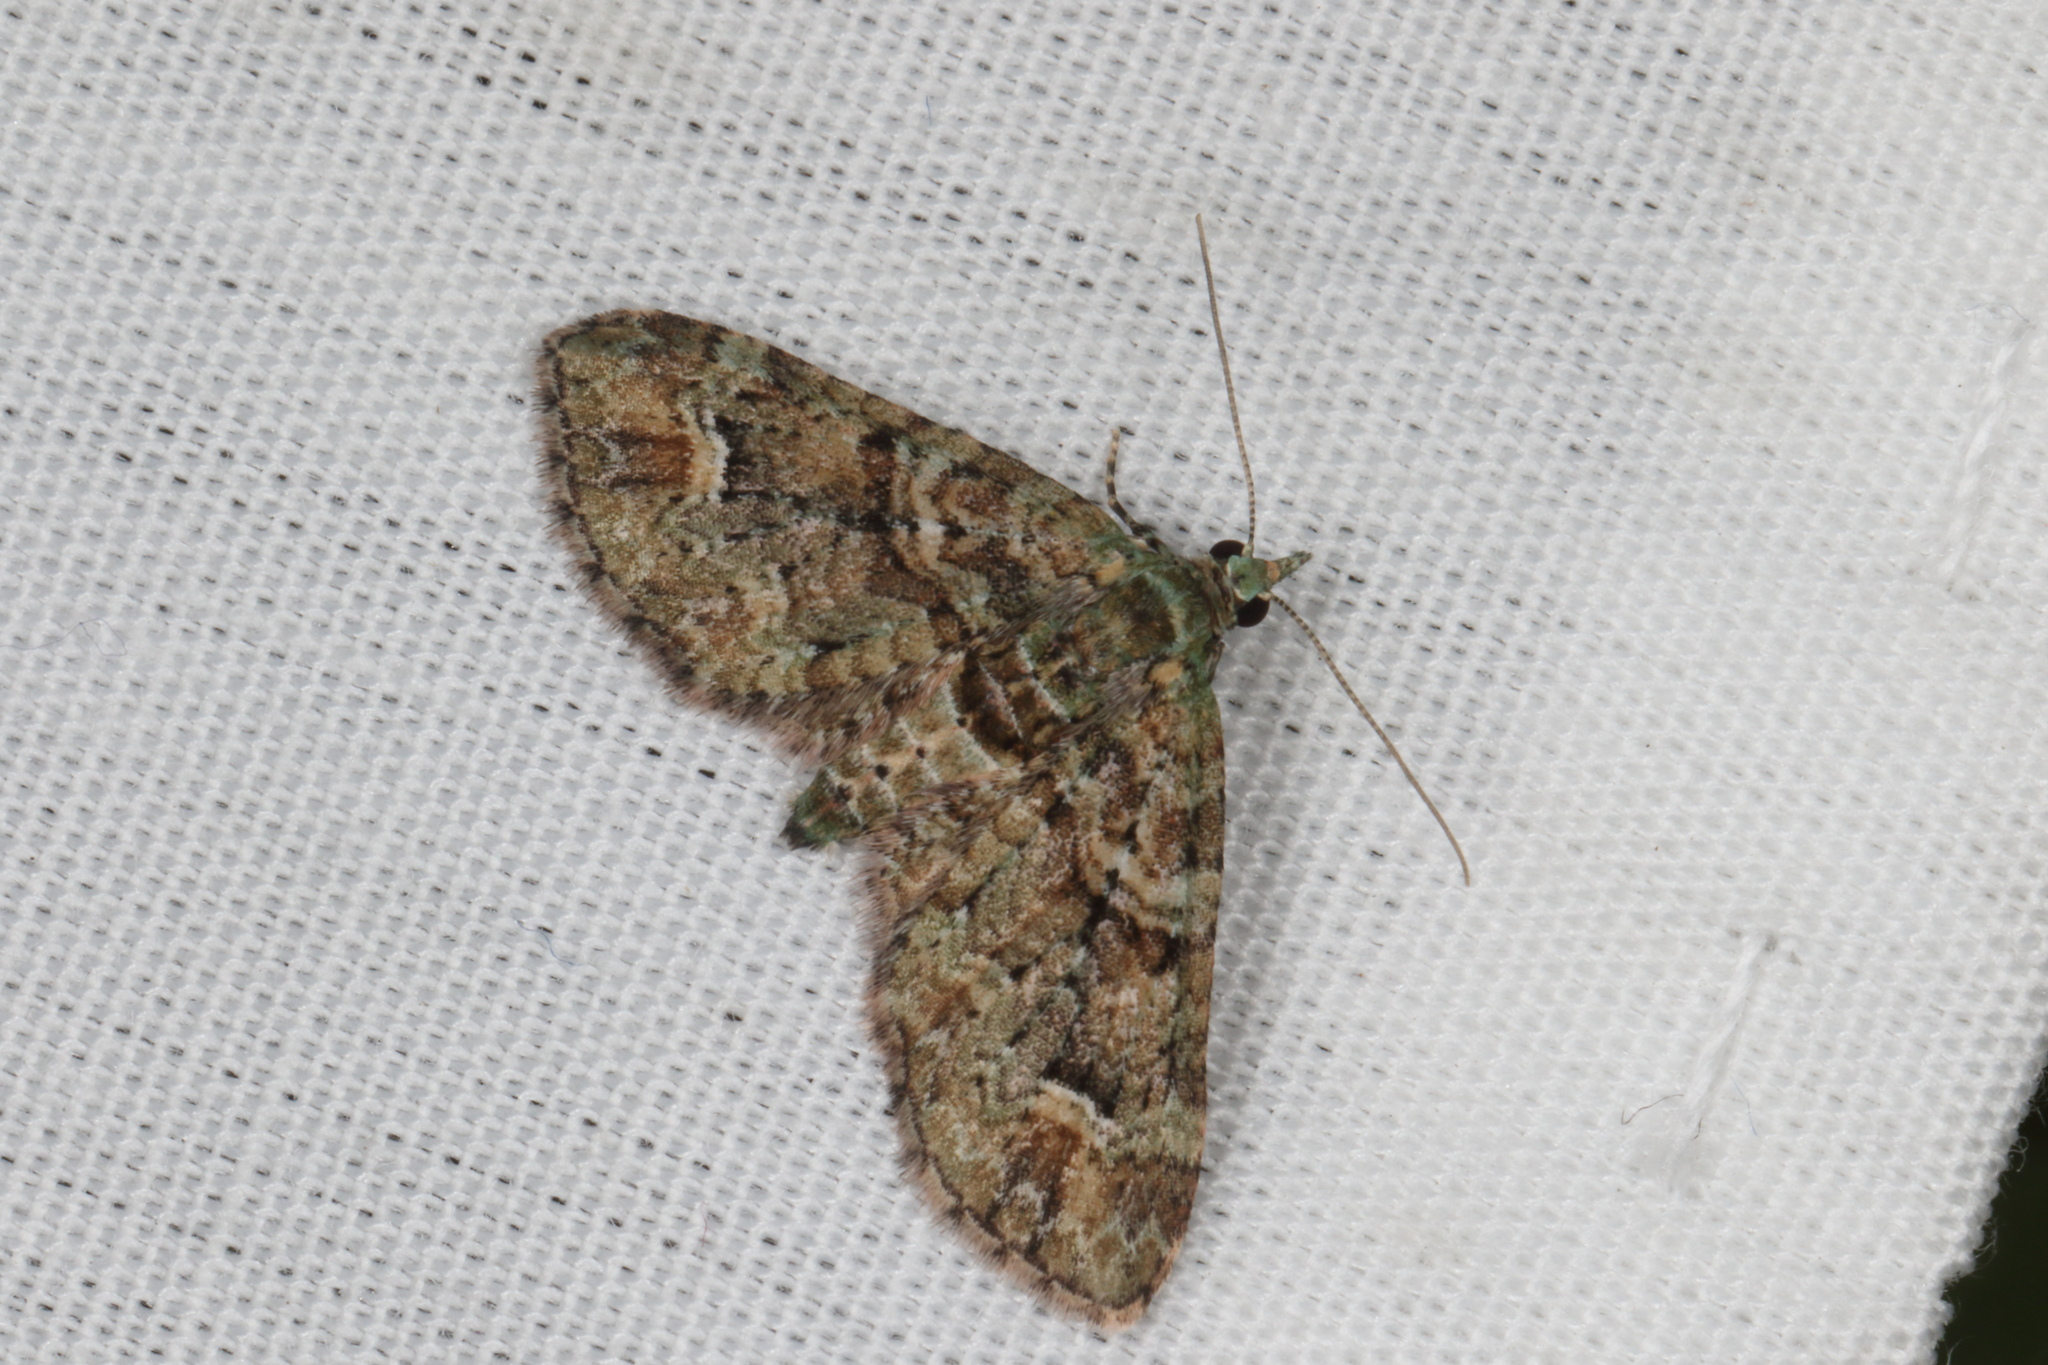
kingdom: Animalia
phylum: Arthropoda
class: Insecta
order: Lepidoptera
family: Geometridae
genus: Idaea
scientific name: Idaea mutanda
